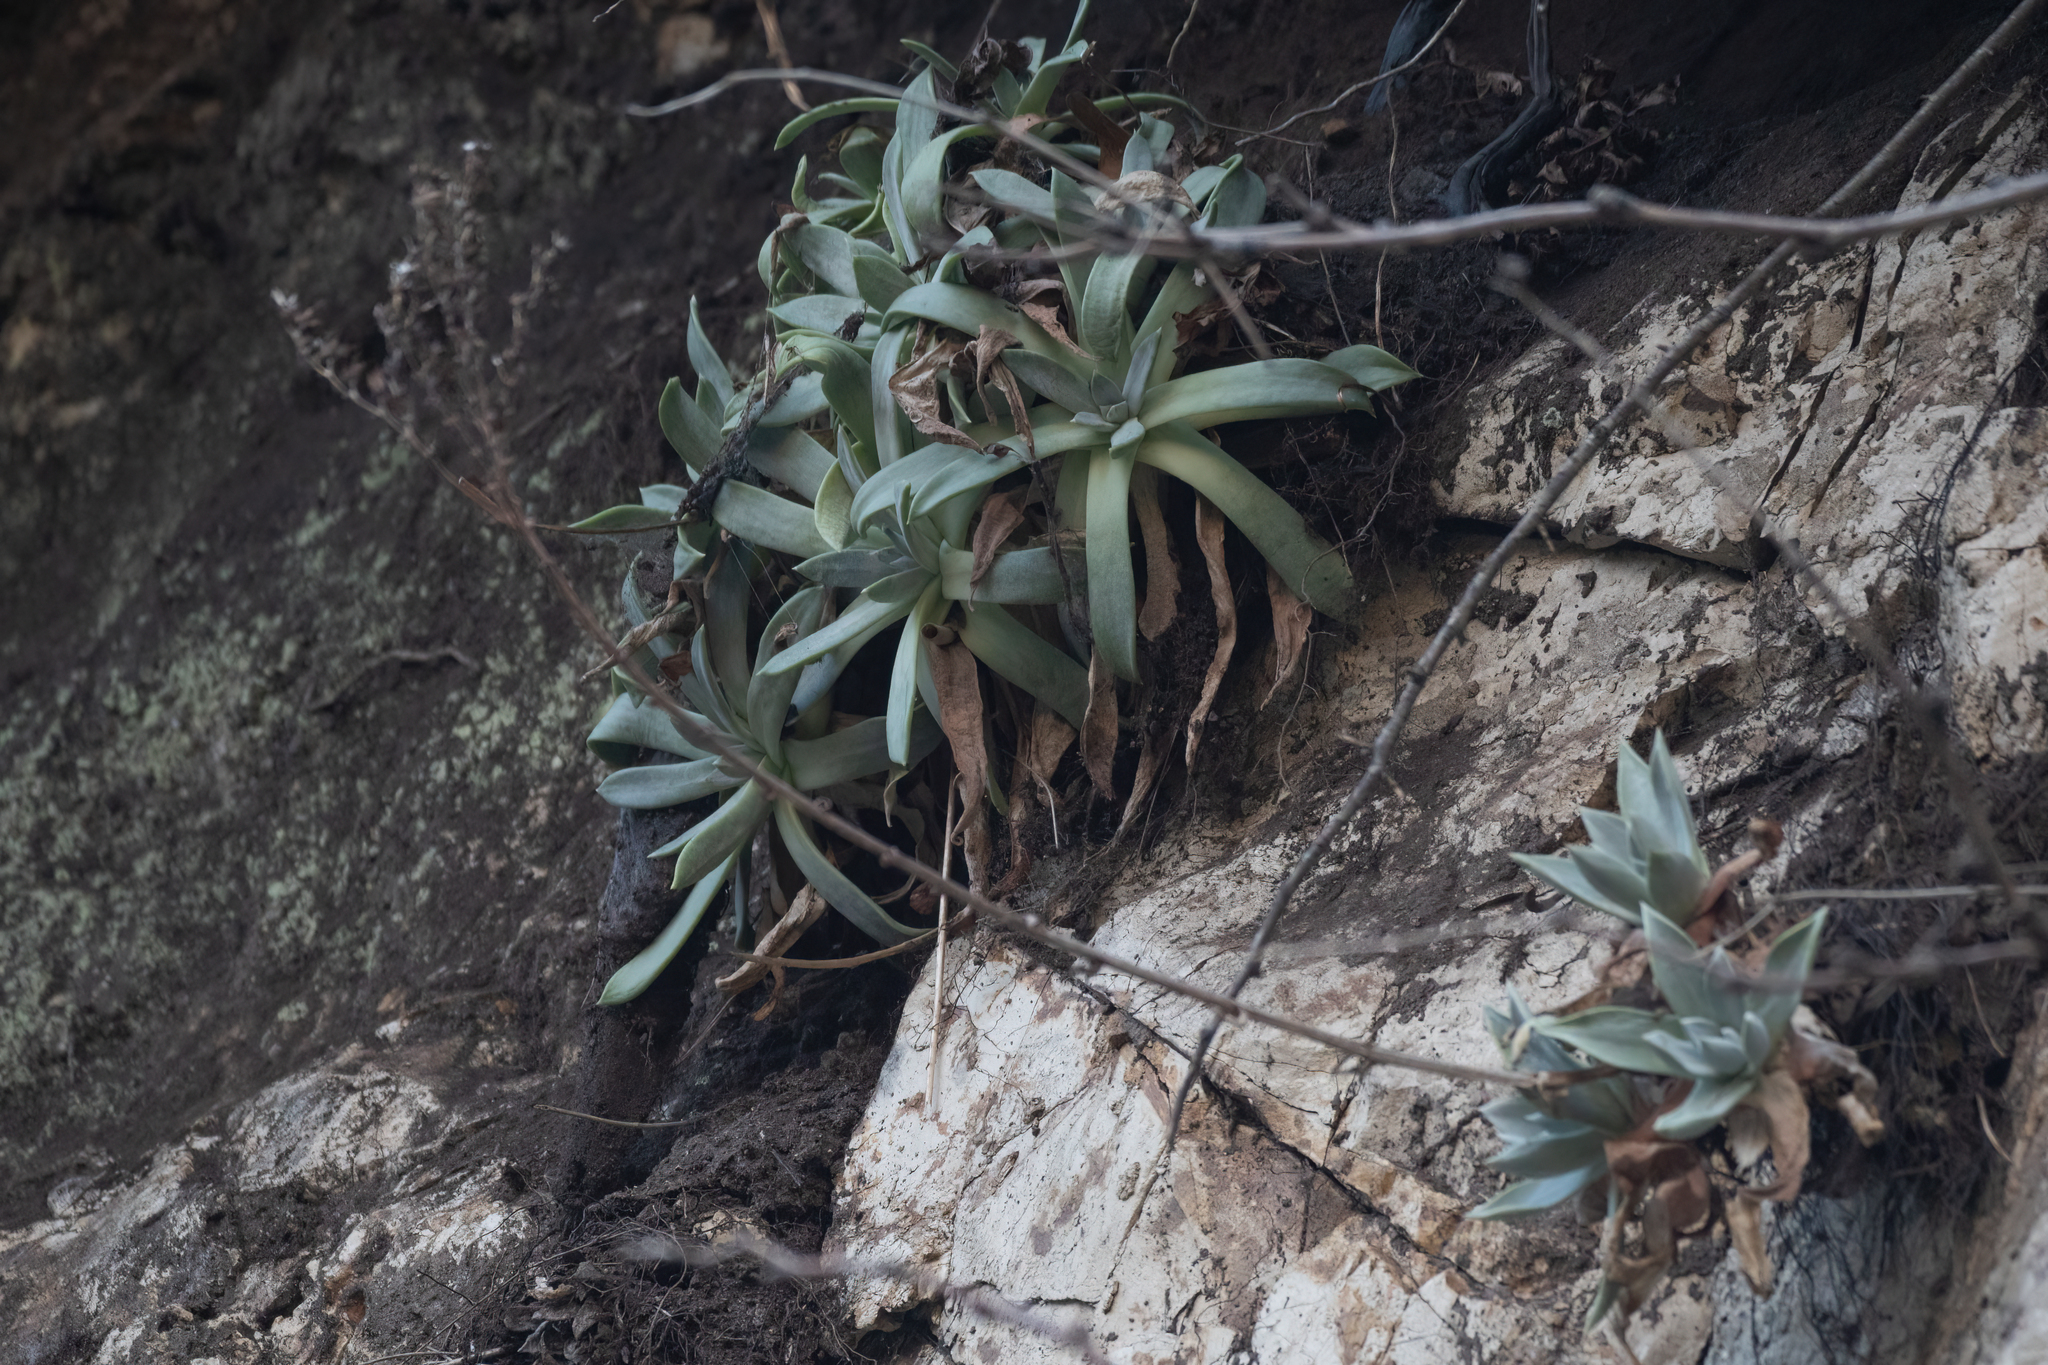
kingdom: Plantae
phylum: Tracheophyta
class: Magnoliopsida
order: Saxifragales
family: Crassulaceae
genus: Dudleya
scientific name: Dudleya caespitosa
